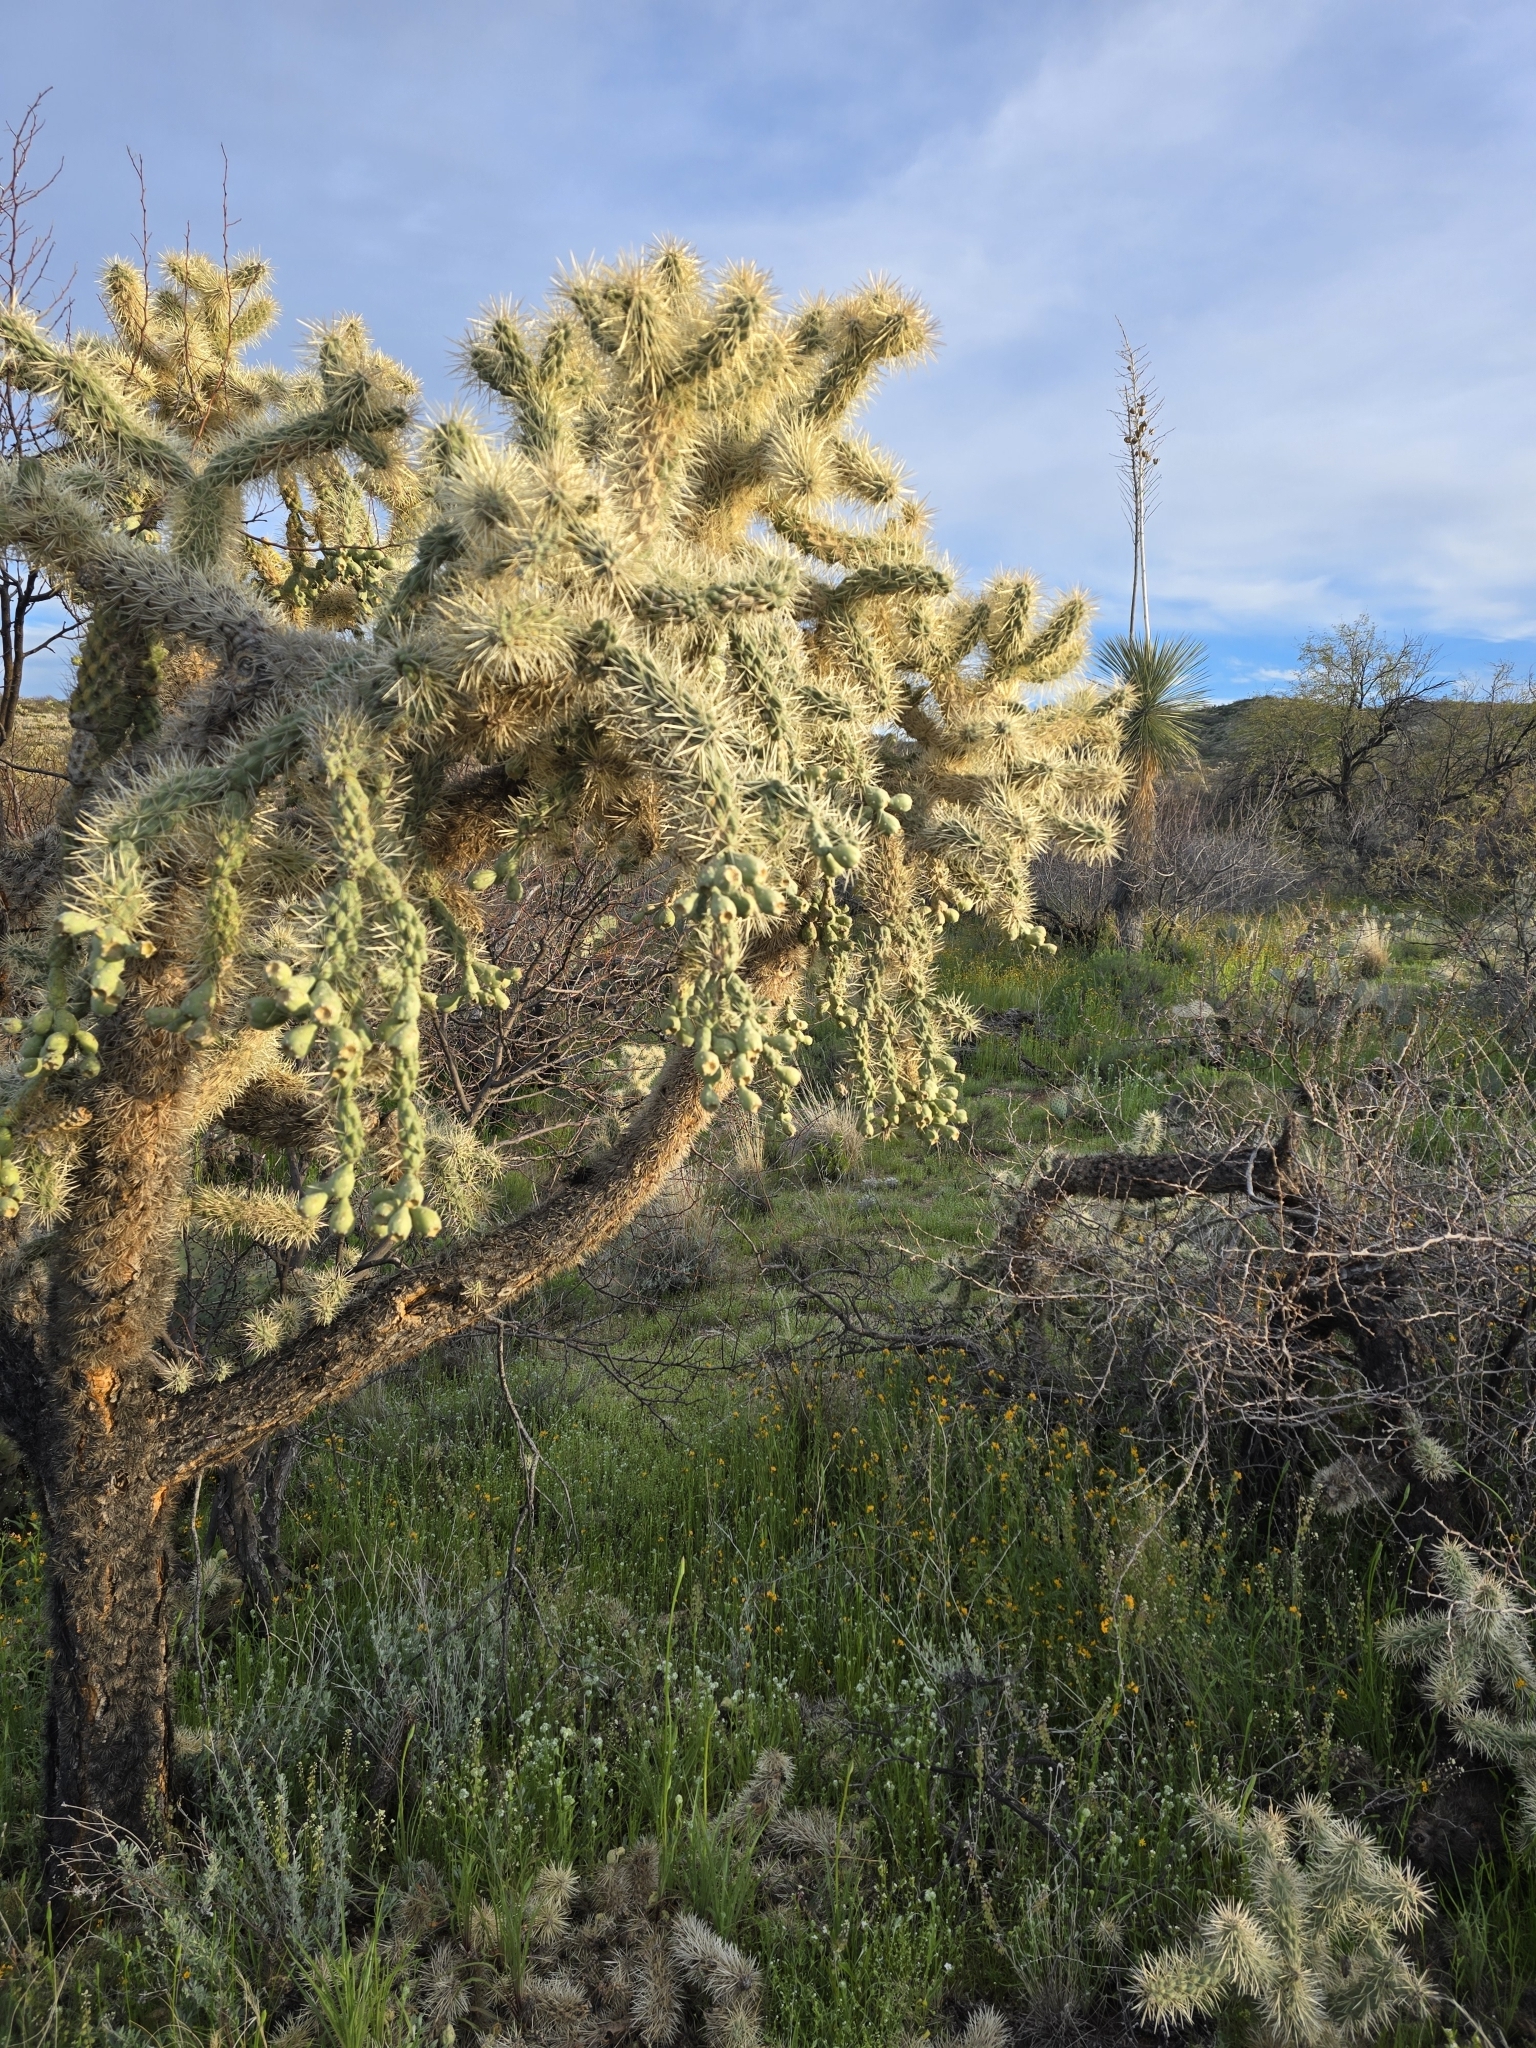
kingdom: Plantae
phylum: Tracheophyta
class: Magnoliopsida
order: Caryophyllales
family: Cactaceae
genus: Cylindropuntia
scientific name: Cylindropuntia fulgida
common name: Jumping cholla
